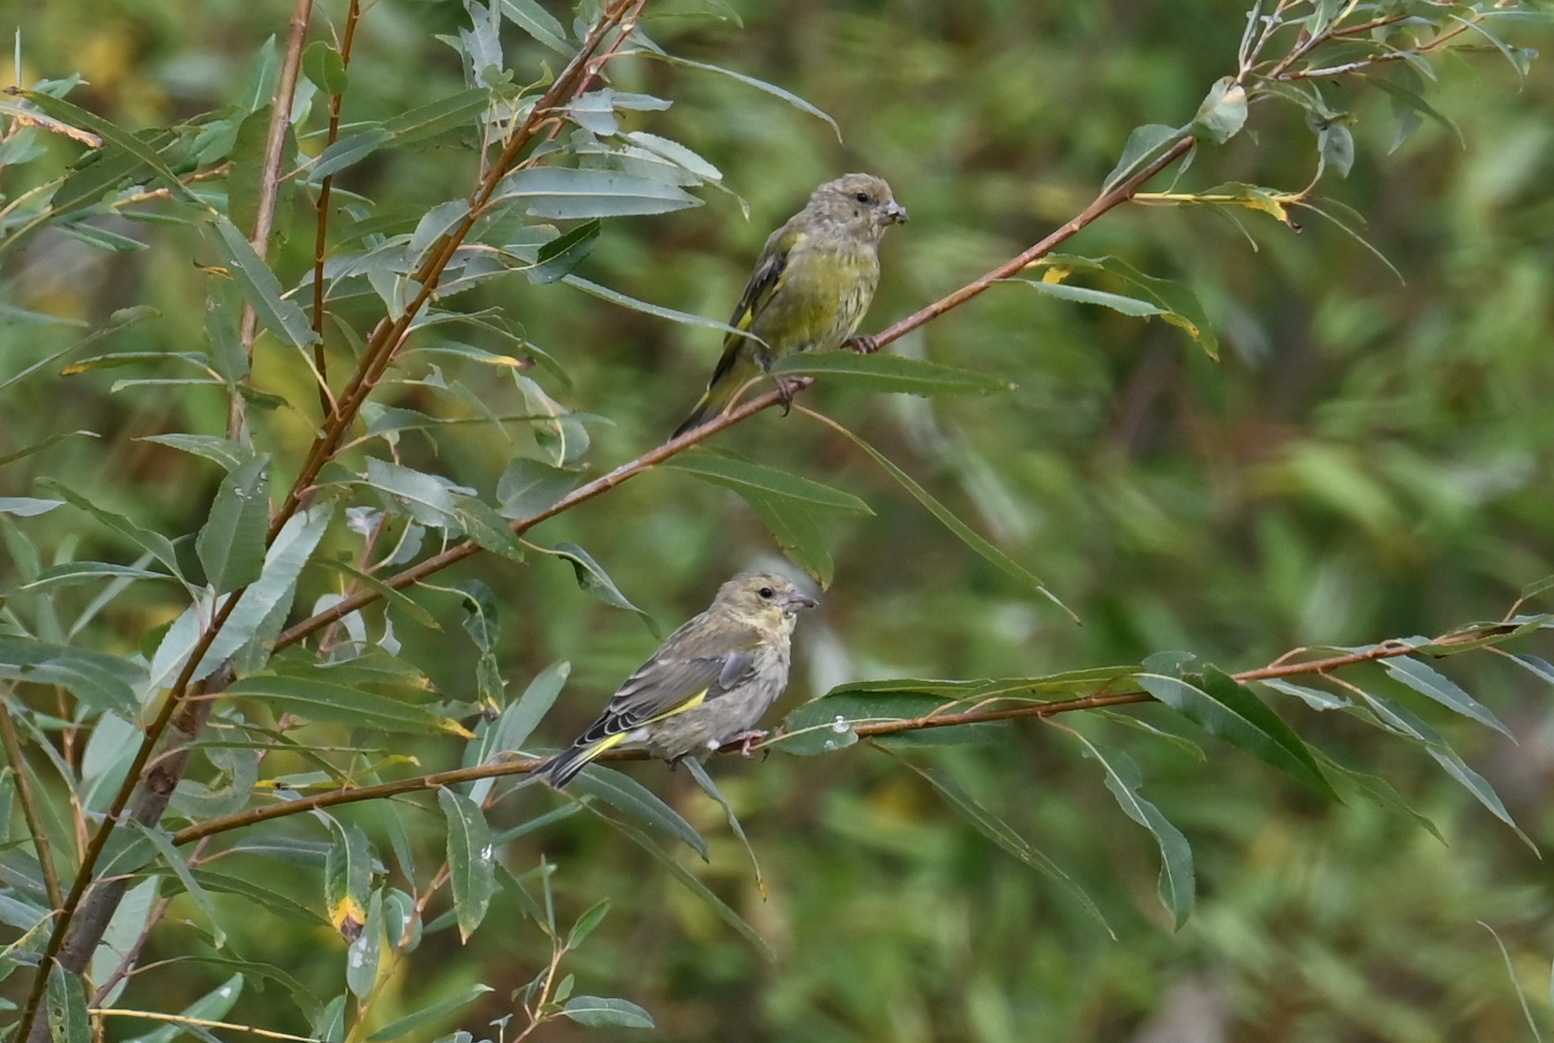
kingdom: Plantae
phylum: Tracheophyta
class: Liliopsida
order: Poales
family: Poaceae
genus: Chloris
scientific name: Chloris chloris
